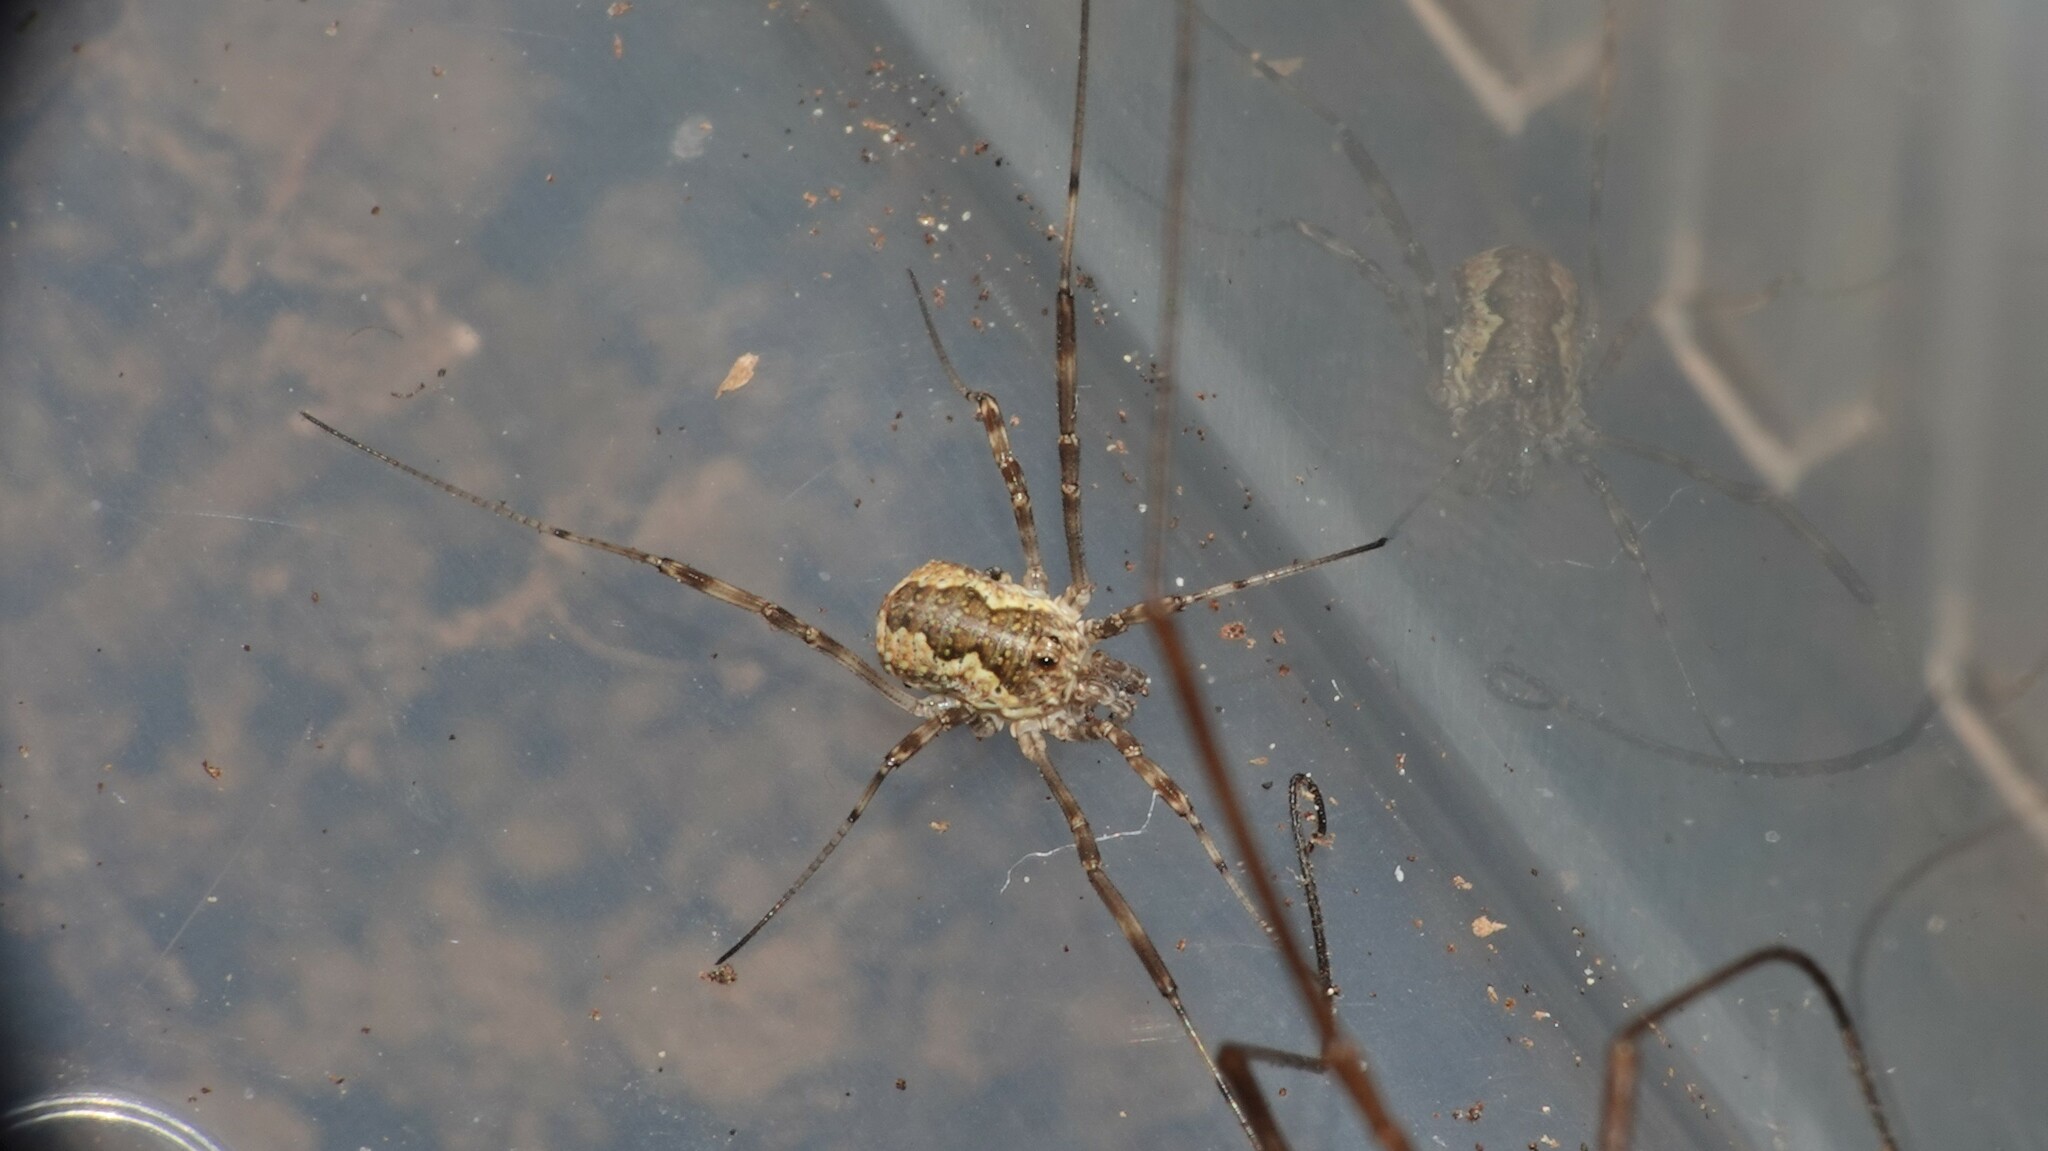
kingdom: Animalia
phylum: Arthropoda
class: Arachnida
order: Opiliones
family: Phalangiidae
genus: Mitopus
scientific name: Mitopus morio
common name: Saddleback harvestman
